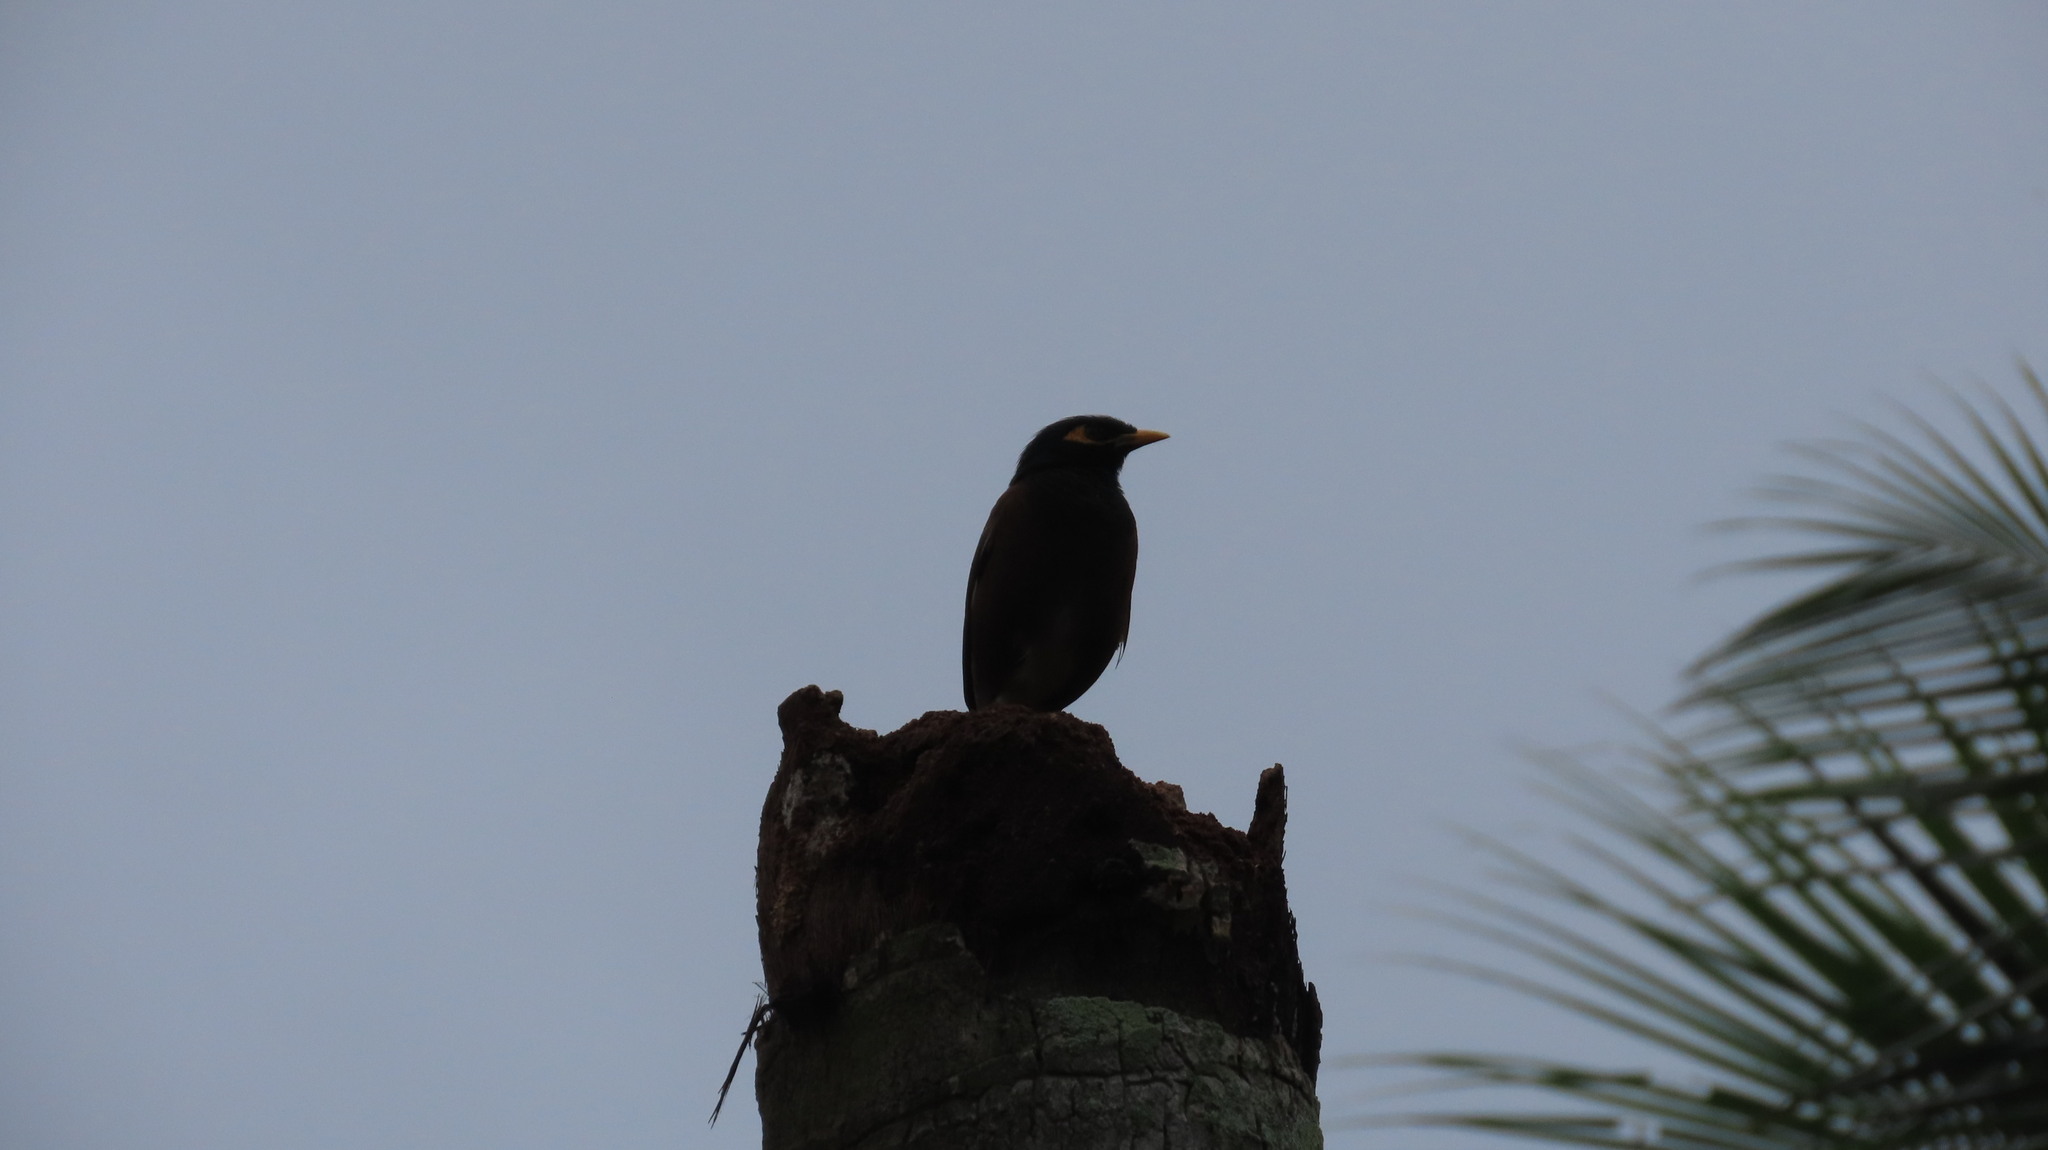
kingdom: Animalia
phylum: Chordata
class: Aves
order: Passeriformes
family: Sturnidae
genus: Acridotheres
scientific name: Acridotheres tristis
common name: Common myna
